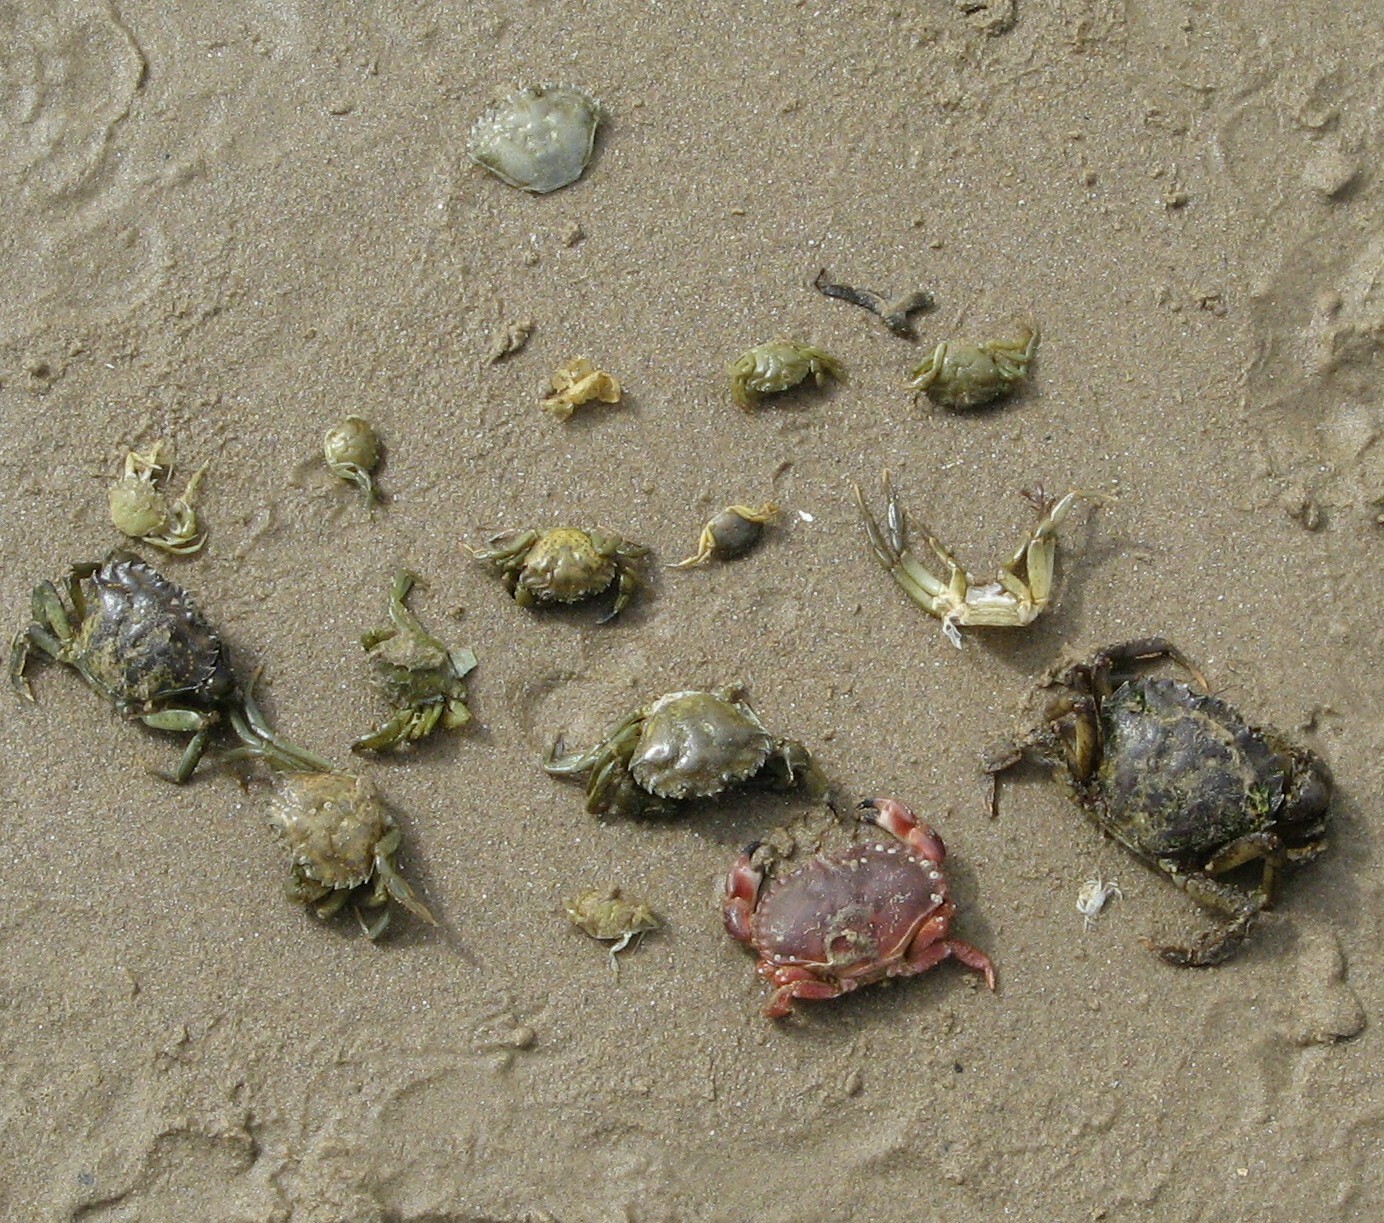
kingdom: Animalia
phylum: Arthropoda
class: Malacostraca
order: Decapoda
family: Carcinidae
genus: Carcinus
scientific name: Carcinus maenas
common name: European green crab
